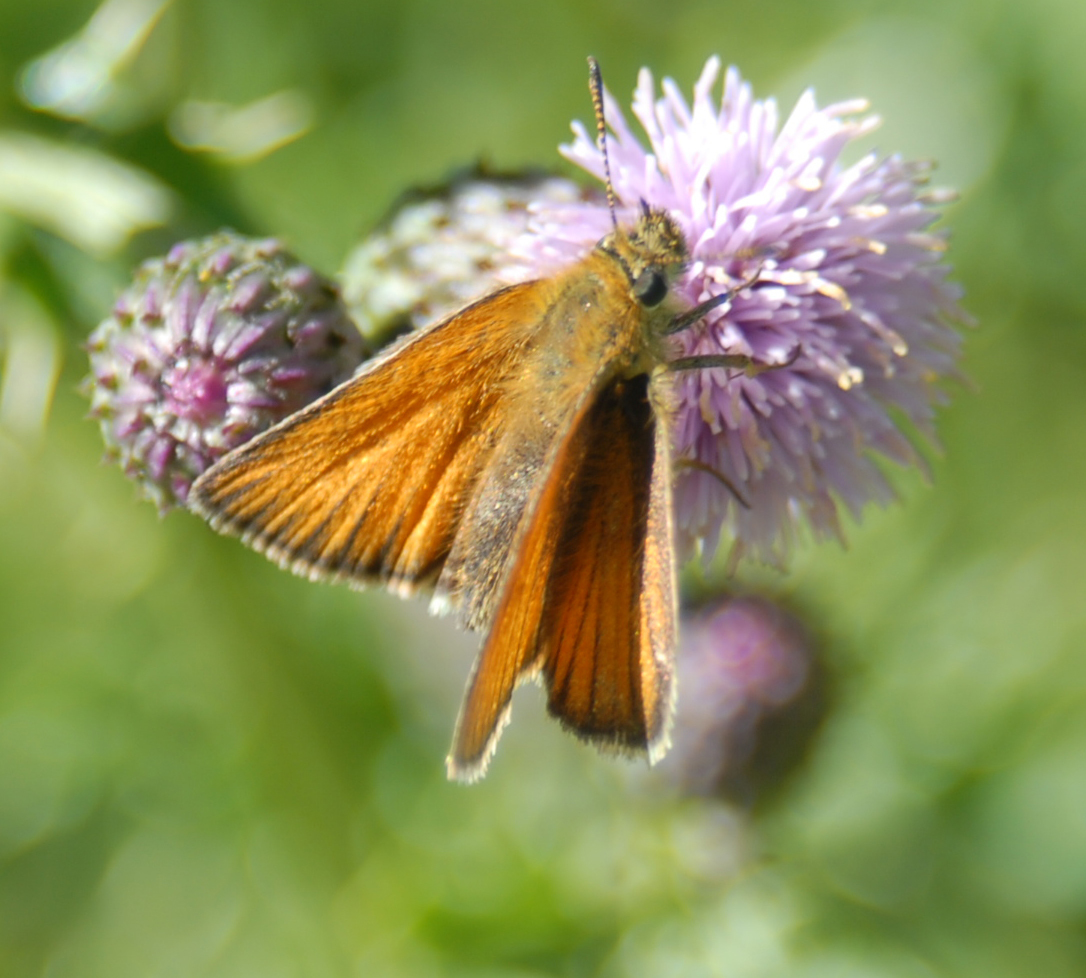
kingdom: Animalia
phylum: Arthropoda
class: Insecta
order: Lepidoptera
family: Hesperiidae
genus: Thymelicus
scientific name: Thymelicus lineola
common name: Essex skipper
